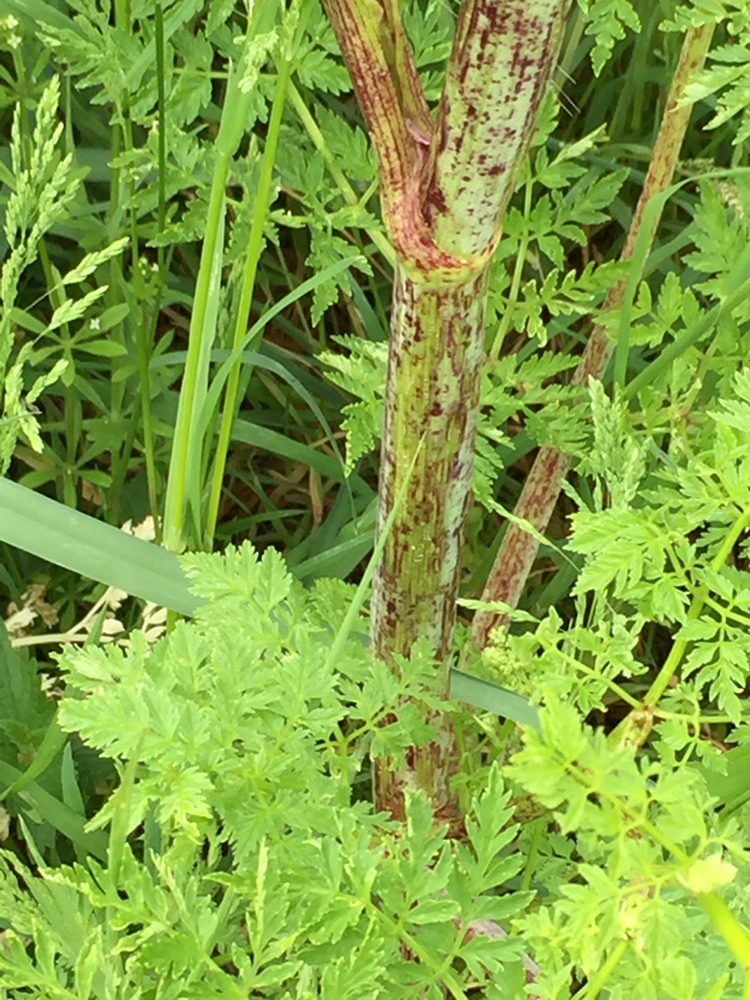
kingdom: Plantae
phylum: Tracheophyta
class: Magnoliopsida
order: Apiales
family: Apiaceae
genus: Conium
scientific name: Conium maculatum
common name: Hemlock
